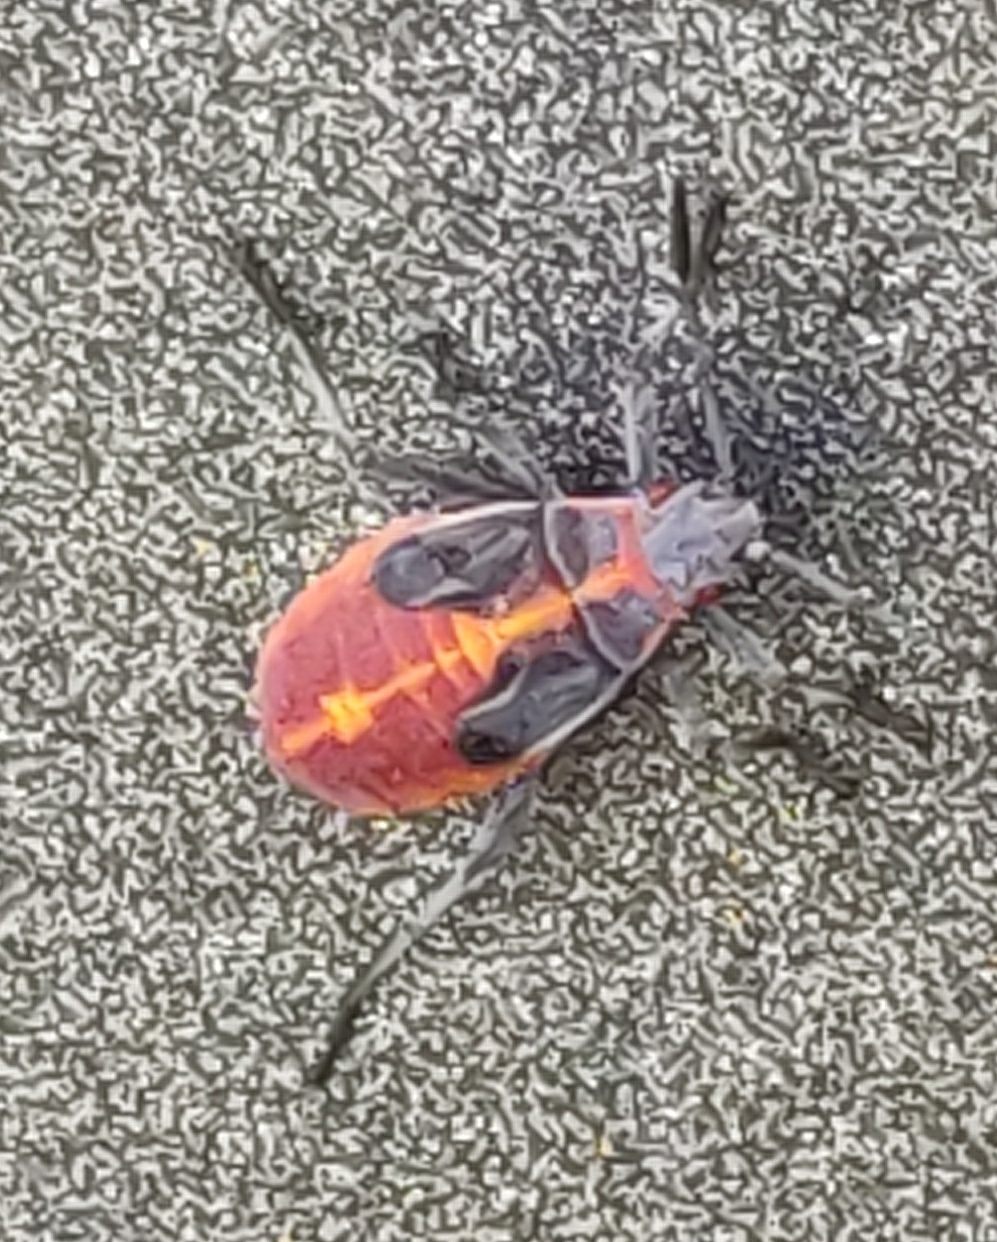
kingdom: Animalia
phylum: Arthropoda
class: Insecta
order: Hemiptera
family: Rhopalidae
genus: Boisea
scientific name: Boisea trivittata
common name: Boxelder bug
